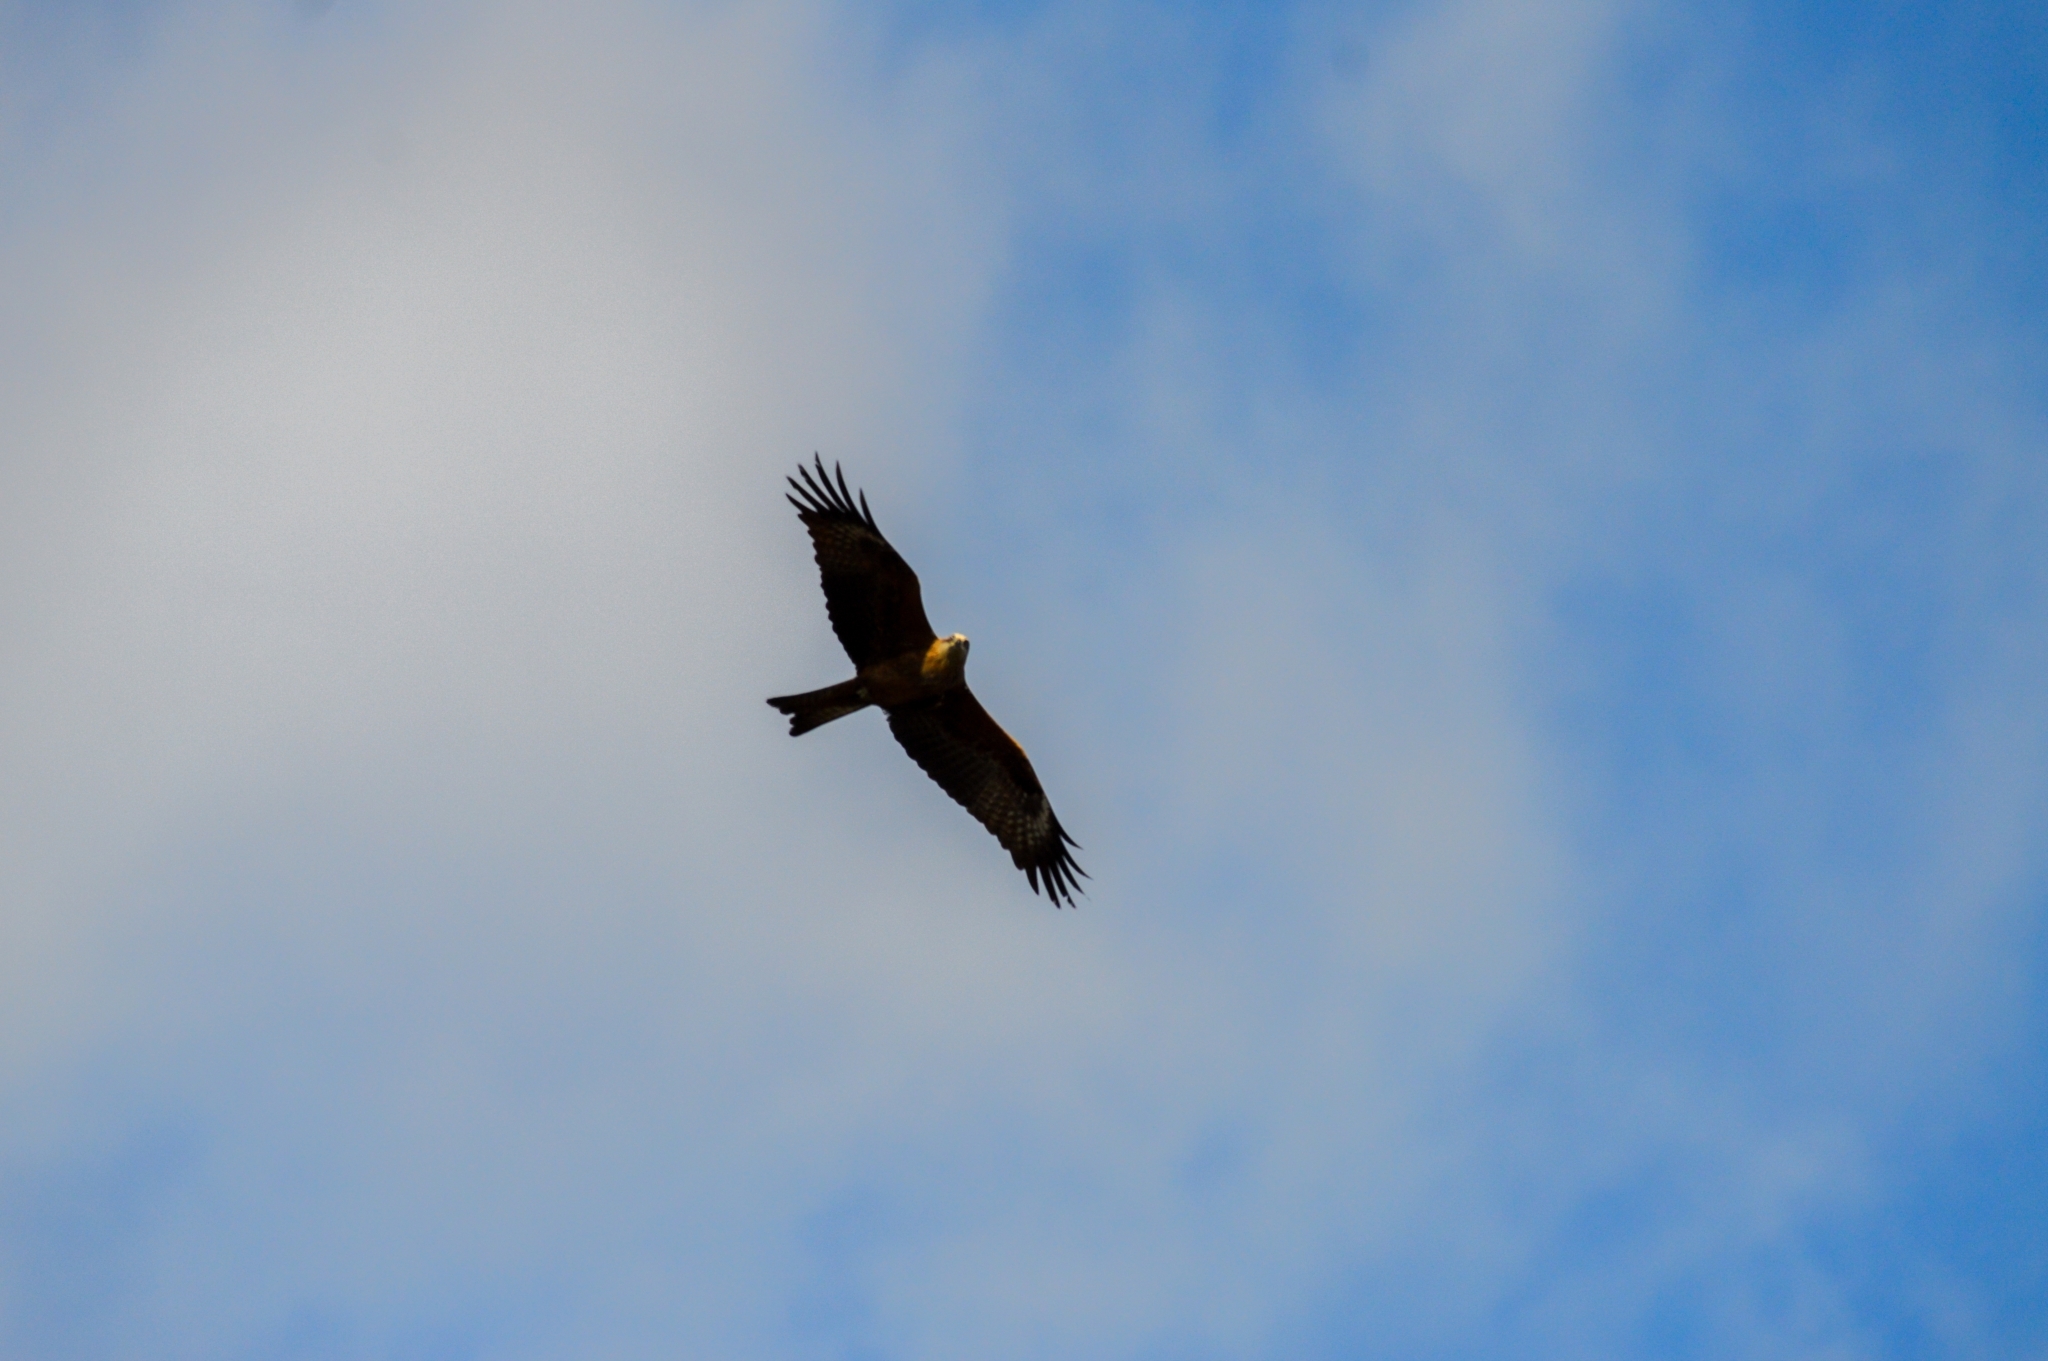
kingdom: Animalia
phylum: Chordata
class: Aves
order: Accipitriformes
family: Accipitridae
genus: Milvus
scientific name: Milvus migrans
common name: Black kite
